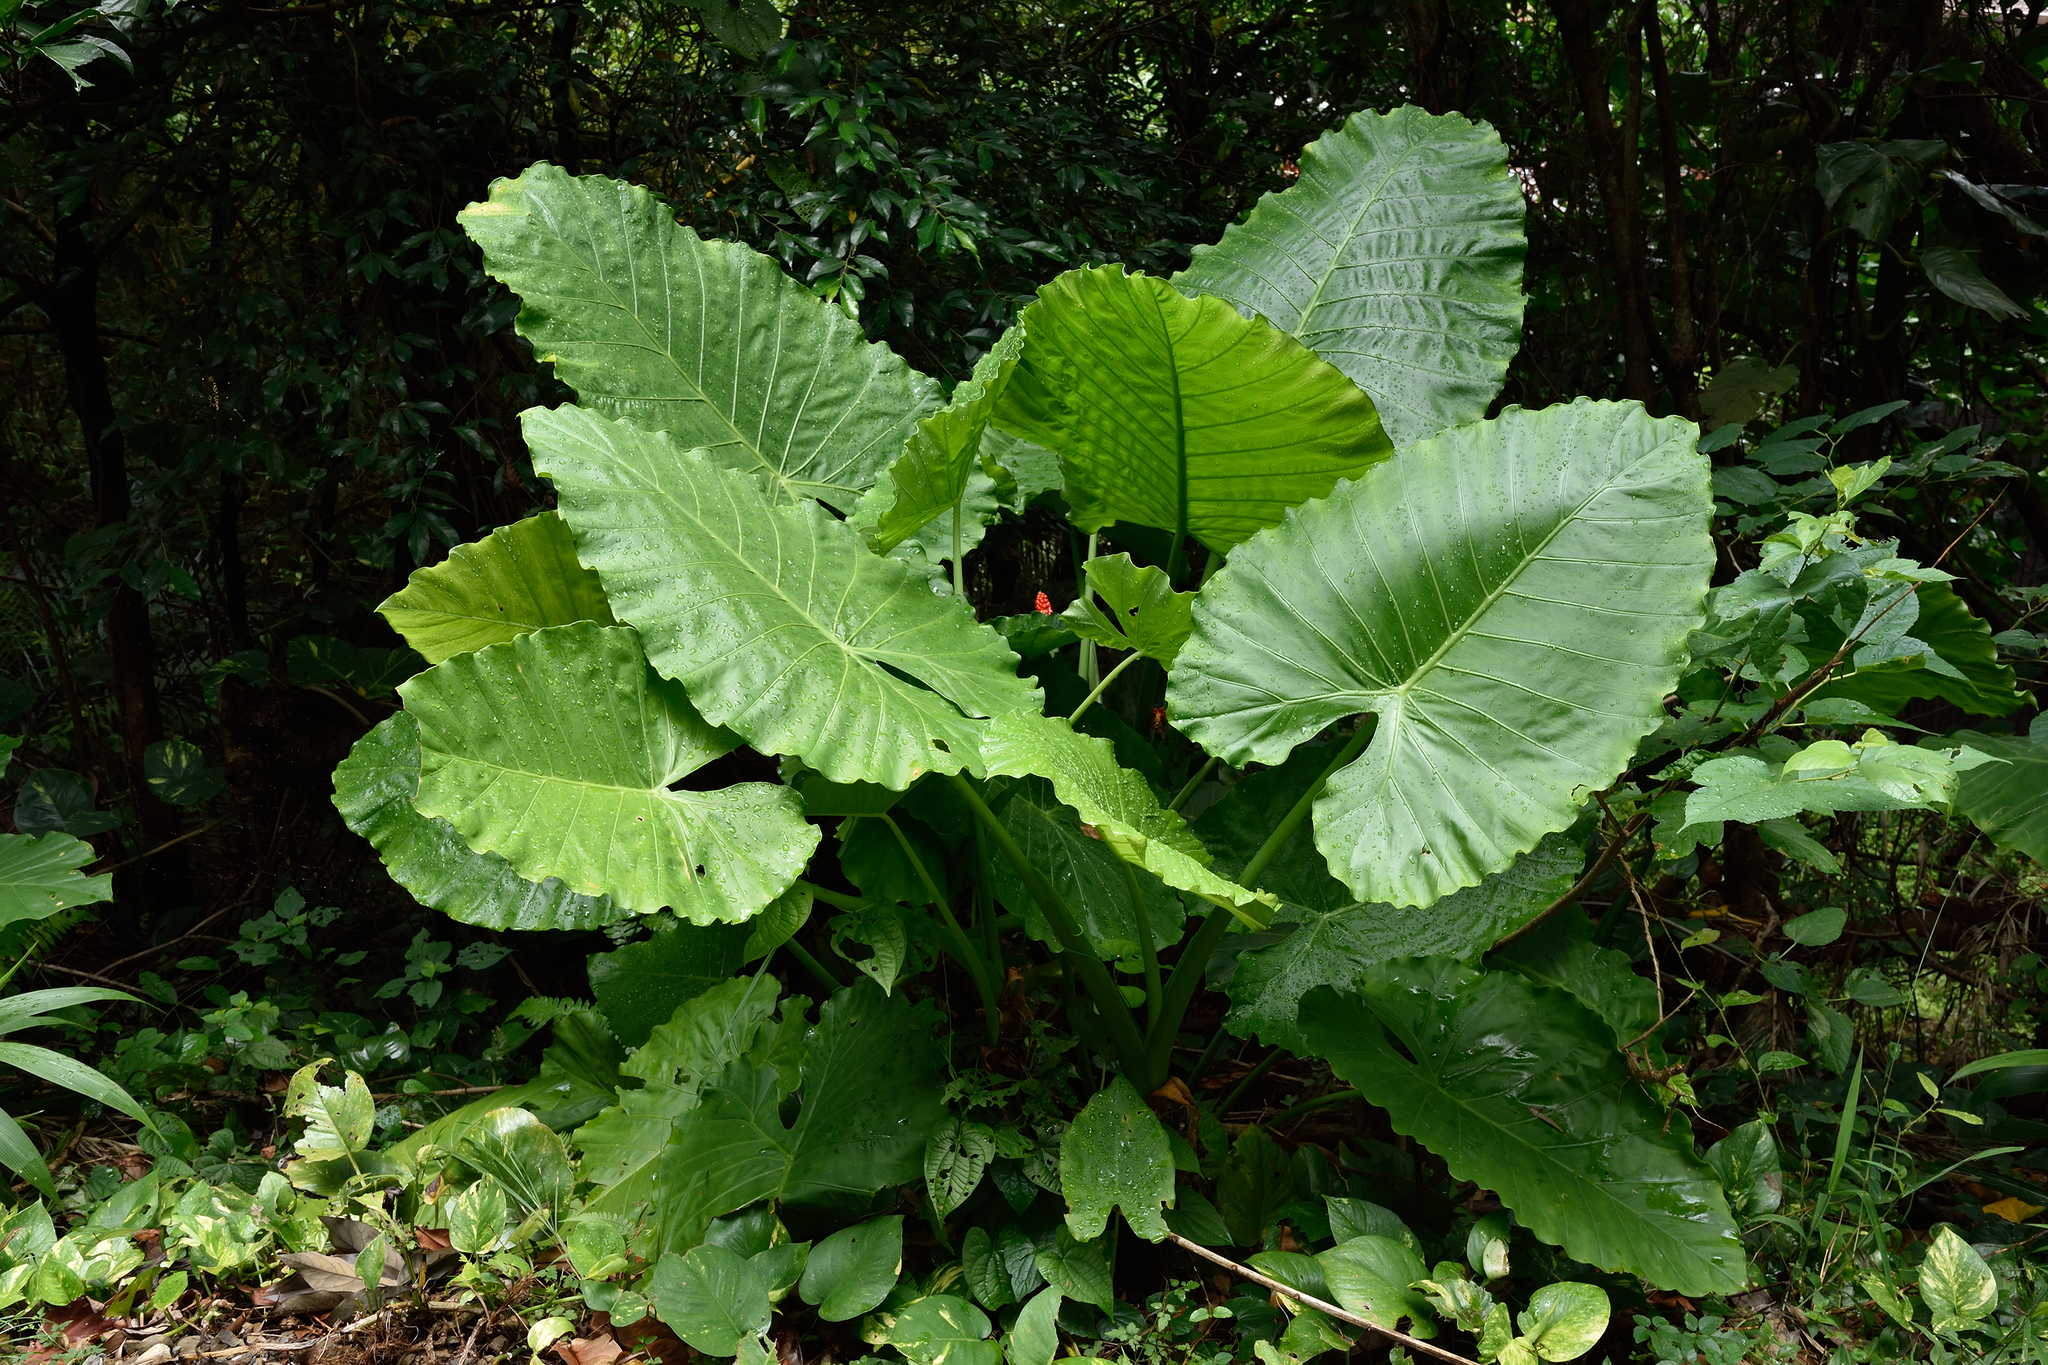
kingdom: Plantae
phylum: Tracheophyta
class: Liliopsida
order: Alismatales
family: Araceae
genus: Alocasia
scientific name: Alocasia odora
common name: Asian taro
